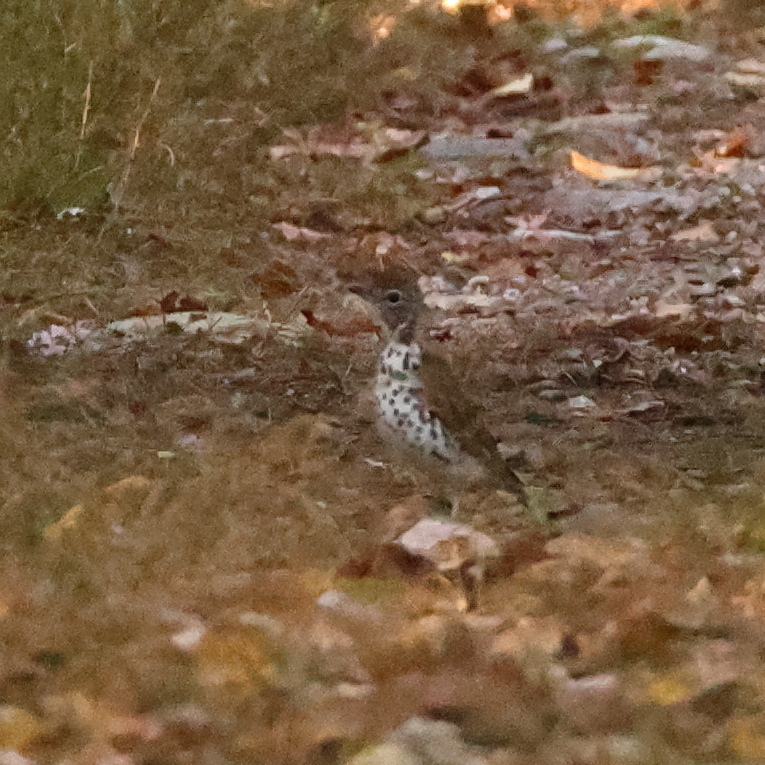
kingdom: Animalia
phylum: Chordata
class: Aves
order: Passeriformes
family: Turdidae
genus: Hylocichla
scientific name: Hylocichla mustelina
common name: Wood thrush
